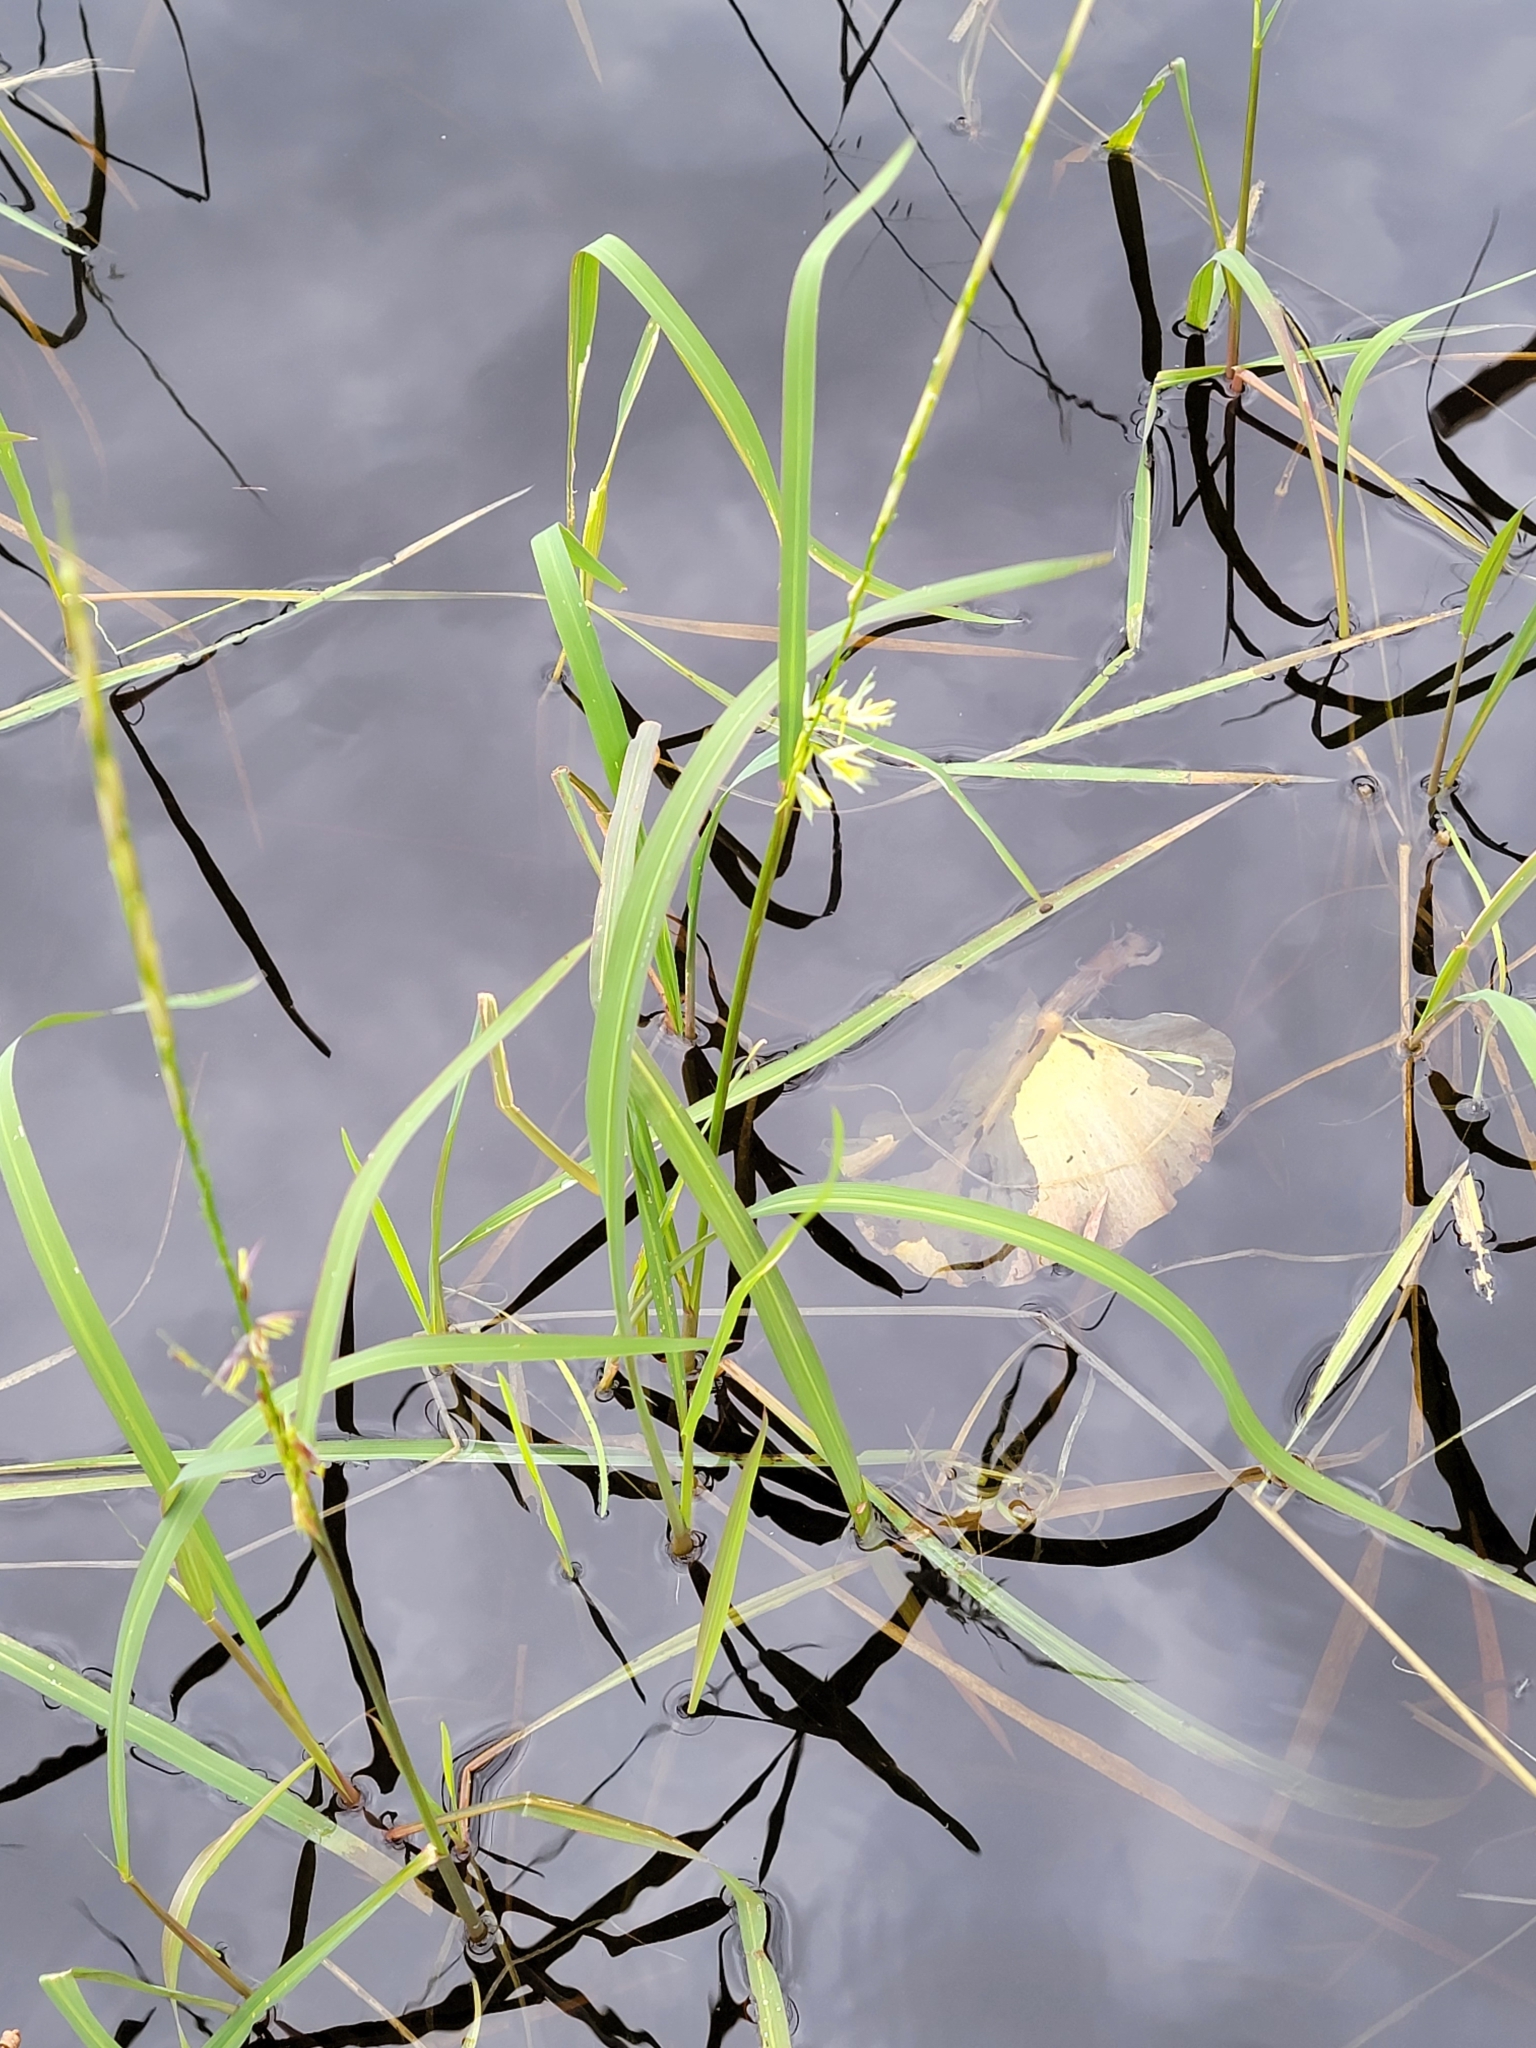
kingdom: Plantae
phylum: Tracheophyta
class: Liliopsida
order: Poales
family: Poaceae
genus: Zizania
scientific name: Zizania palustris
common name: Northern wild rice
